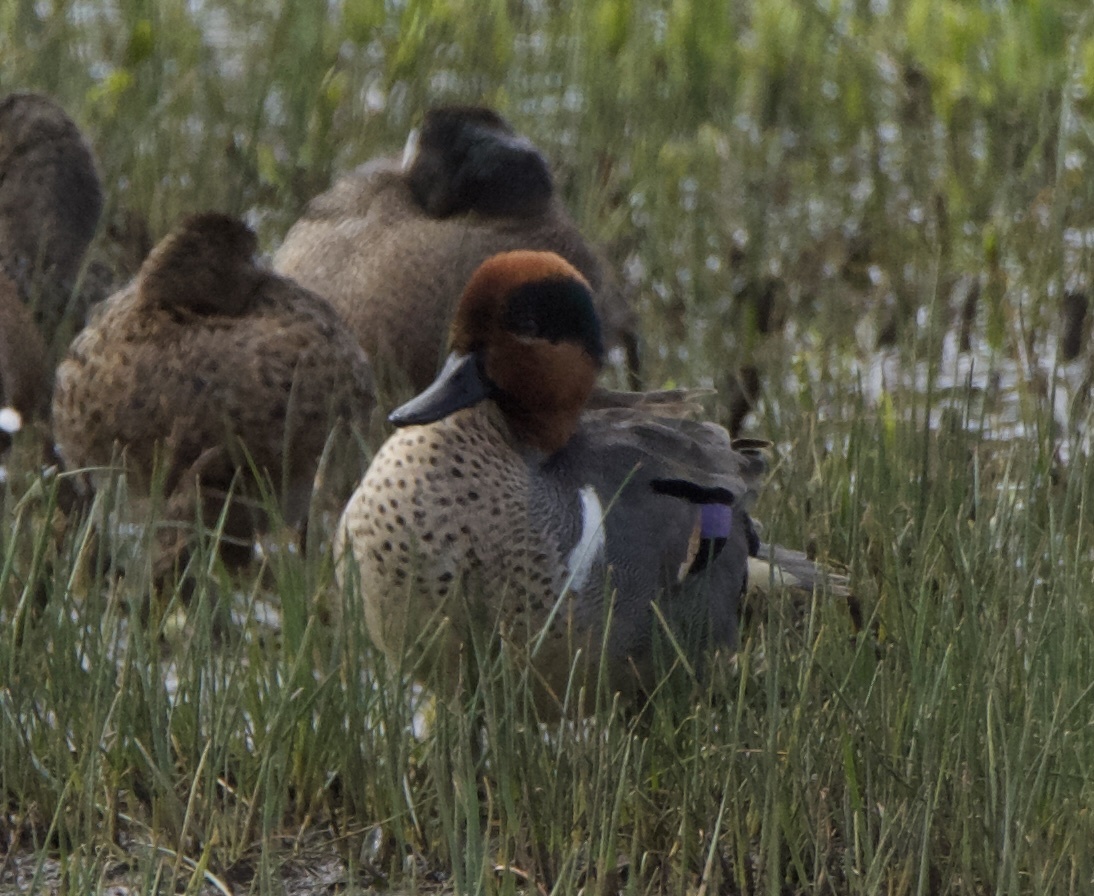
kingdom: Animalia
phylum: Chordata
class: Aves
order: Anseriformes
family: Anatidae
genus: Anas
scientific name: Anas crecca
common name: Eurasian teal
